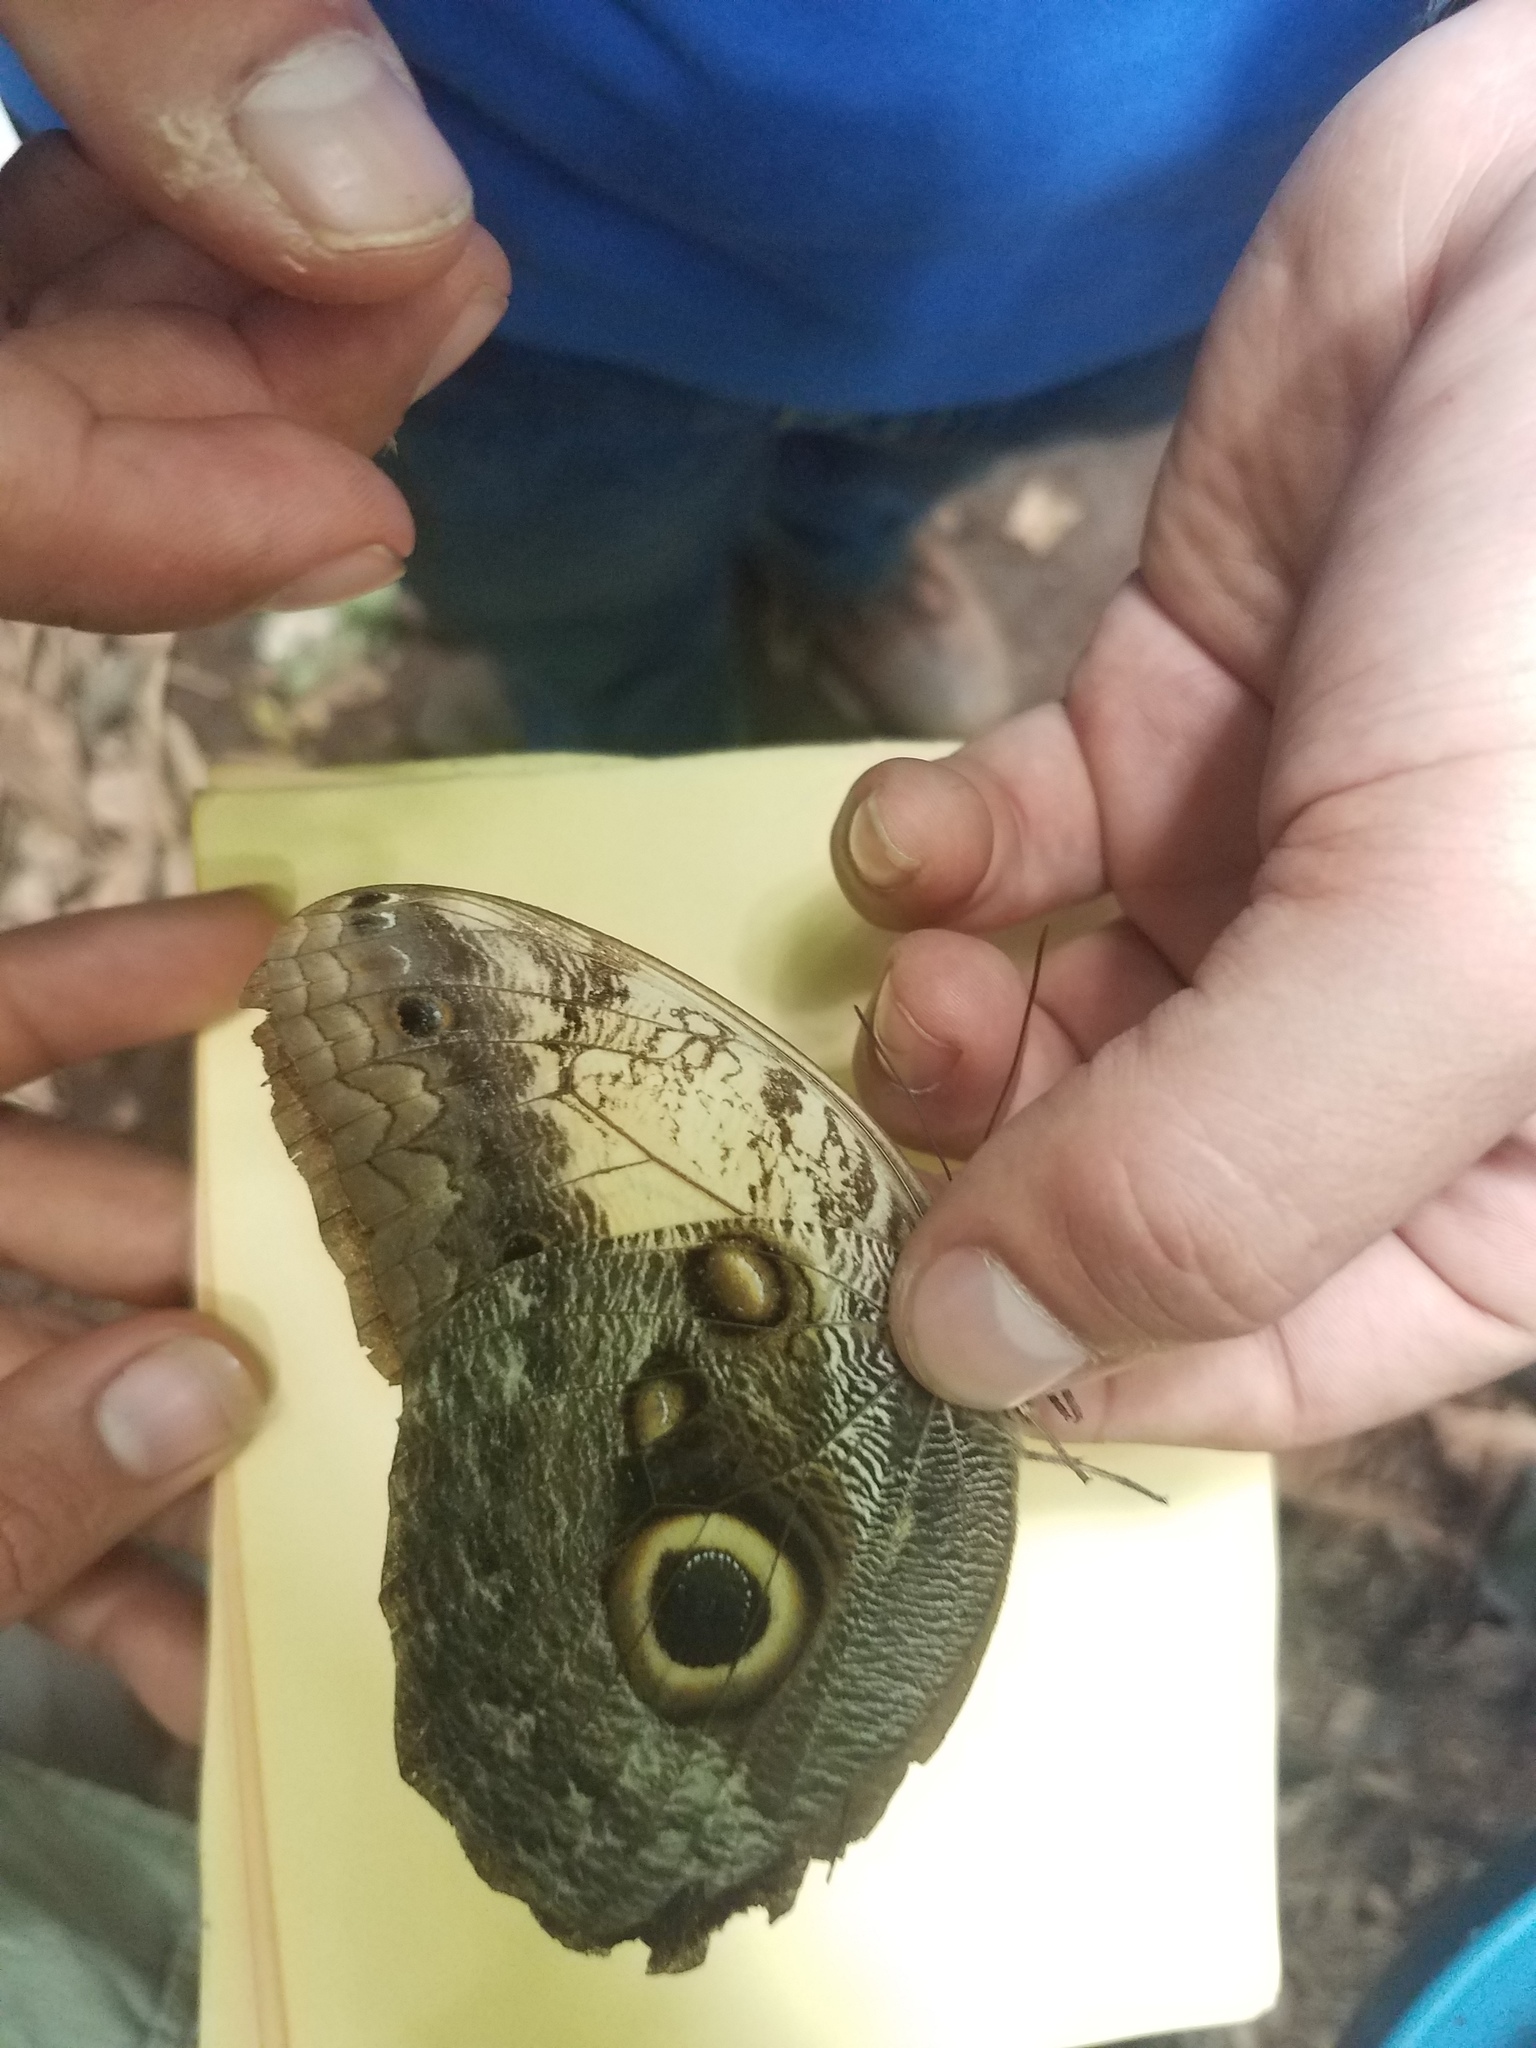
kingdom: Animalia
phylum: Arthropoda
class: Insecta
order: Lepidoptera
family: Nymphalidae
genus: Caligo
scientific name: Caligo telamonius
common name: Pale owl-butterfly
